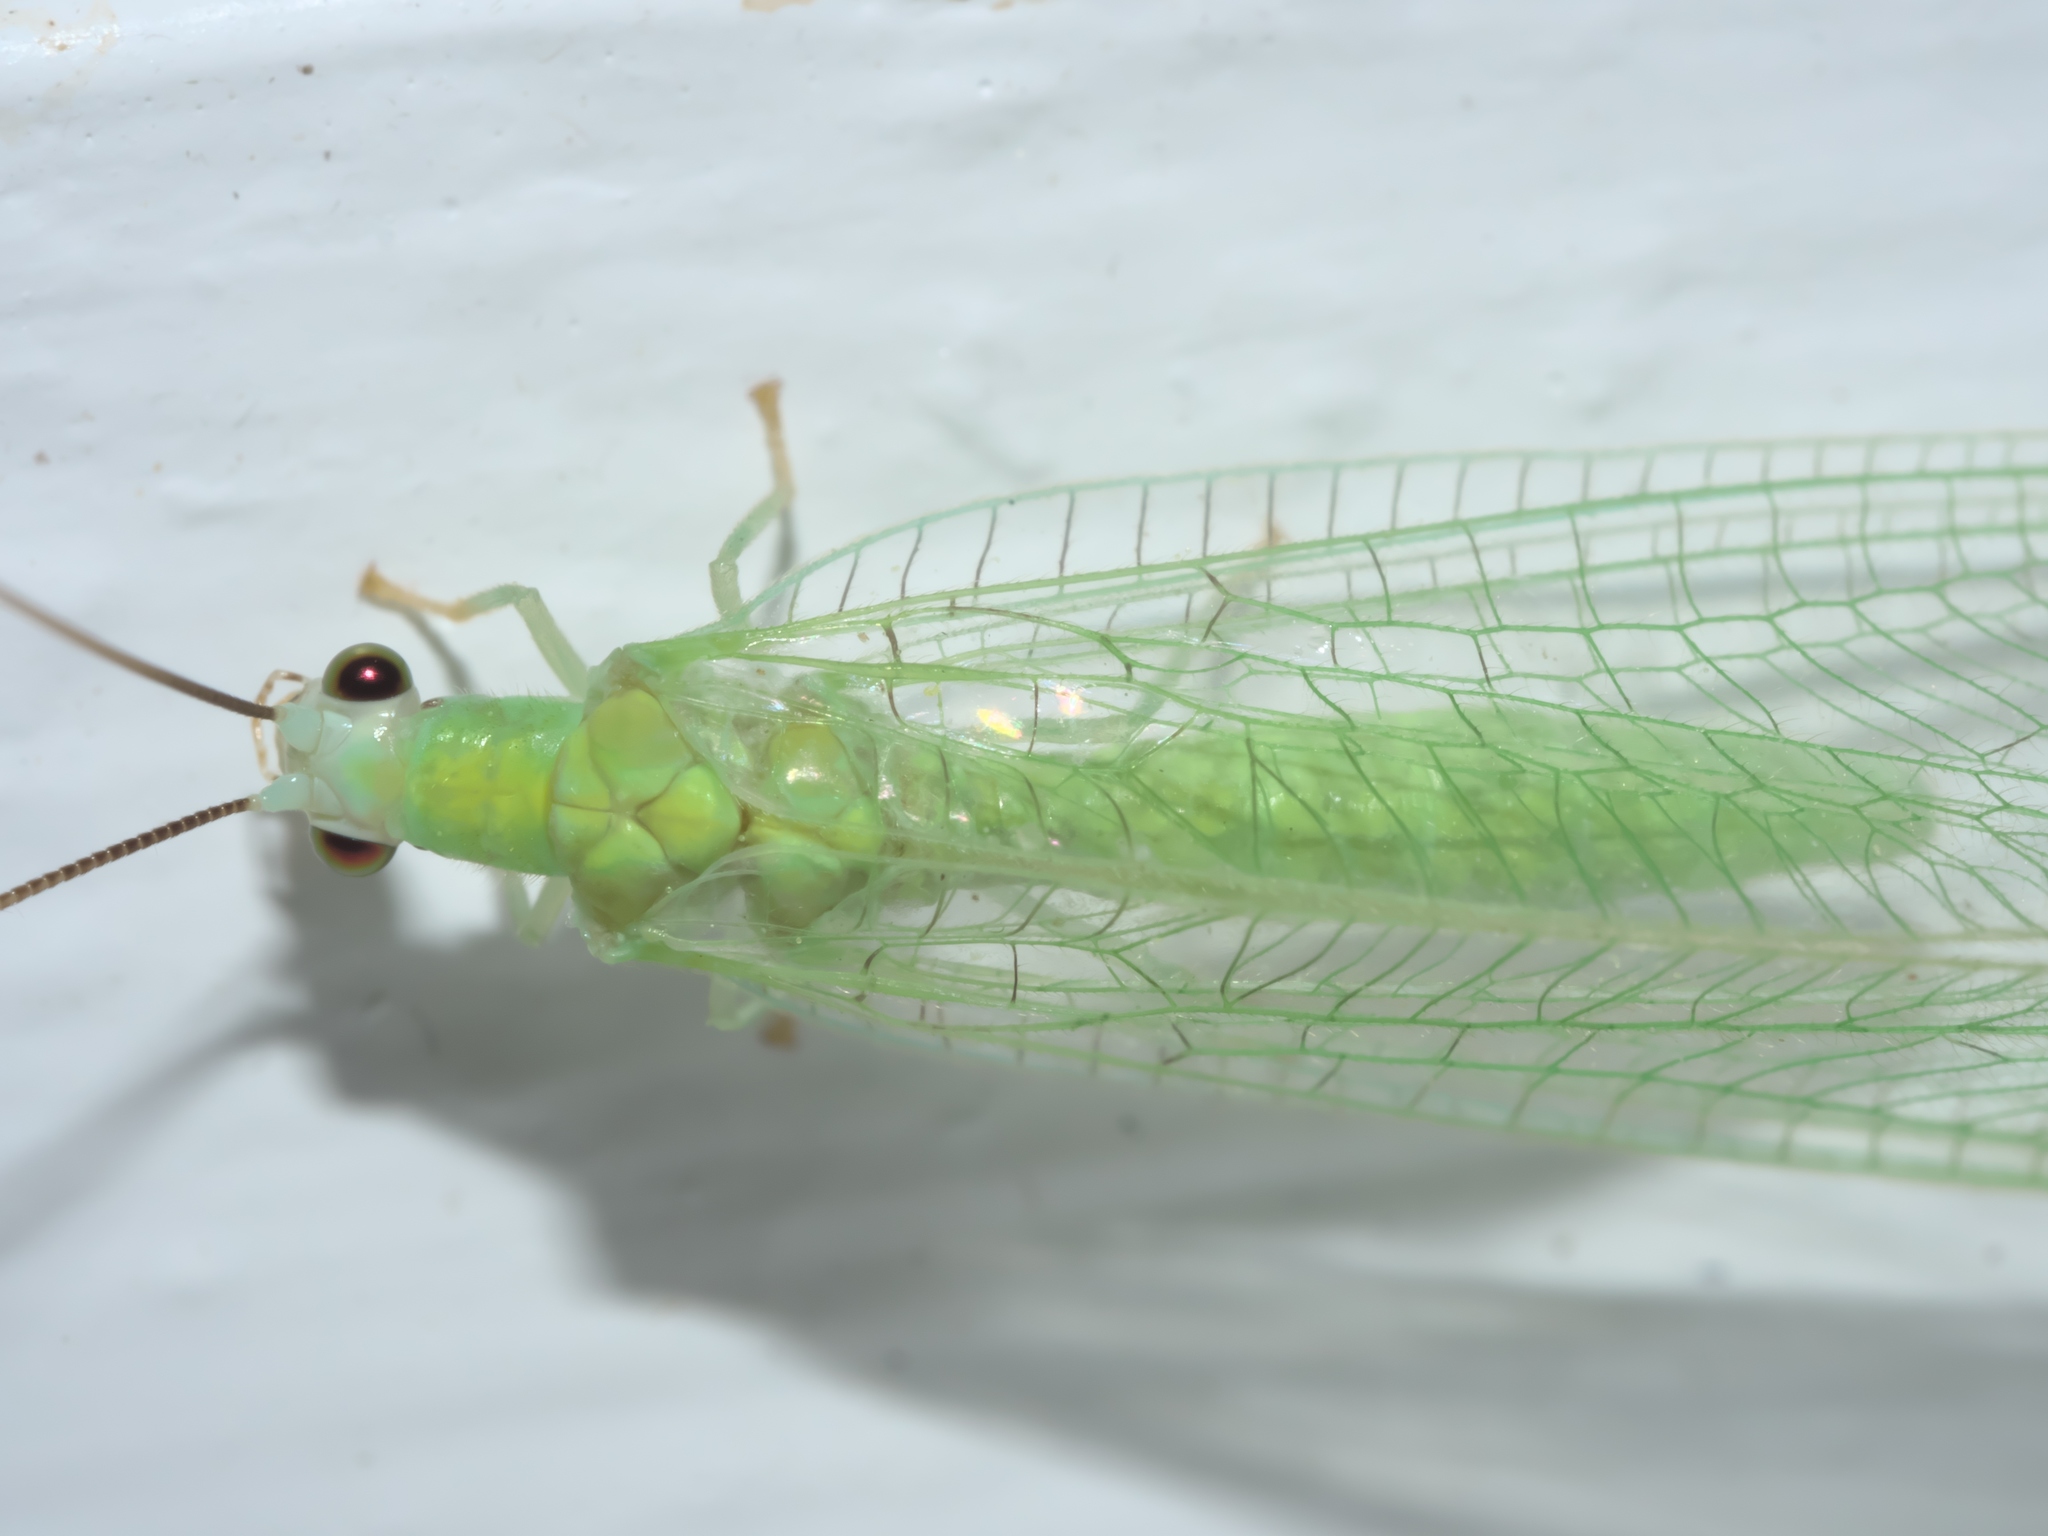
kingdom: Animalia
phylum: Arthropoda
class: Insecta
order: Neuroptera
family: Chrysopidae
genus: Chrysopa
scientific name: Chrysopa nigricornis
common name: Black-horned green lacewing
